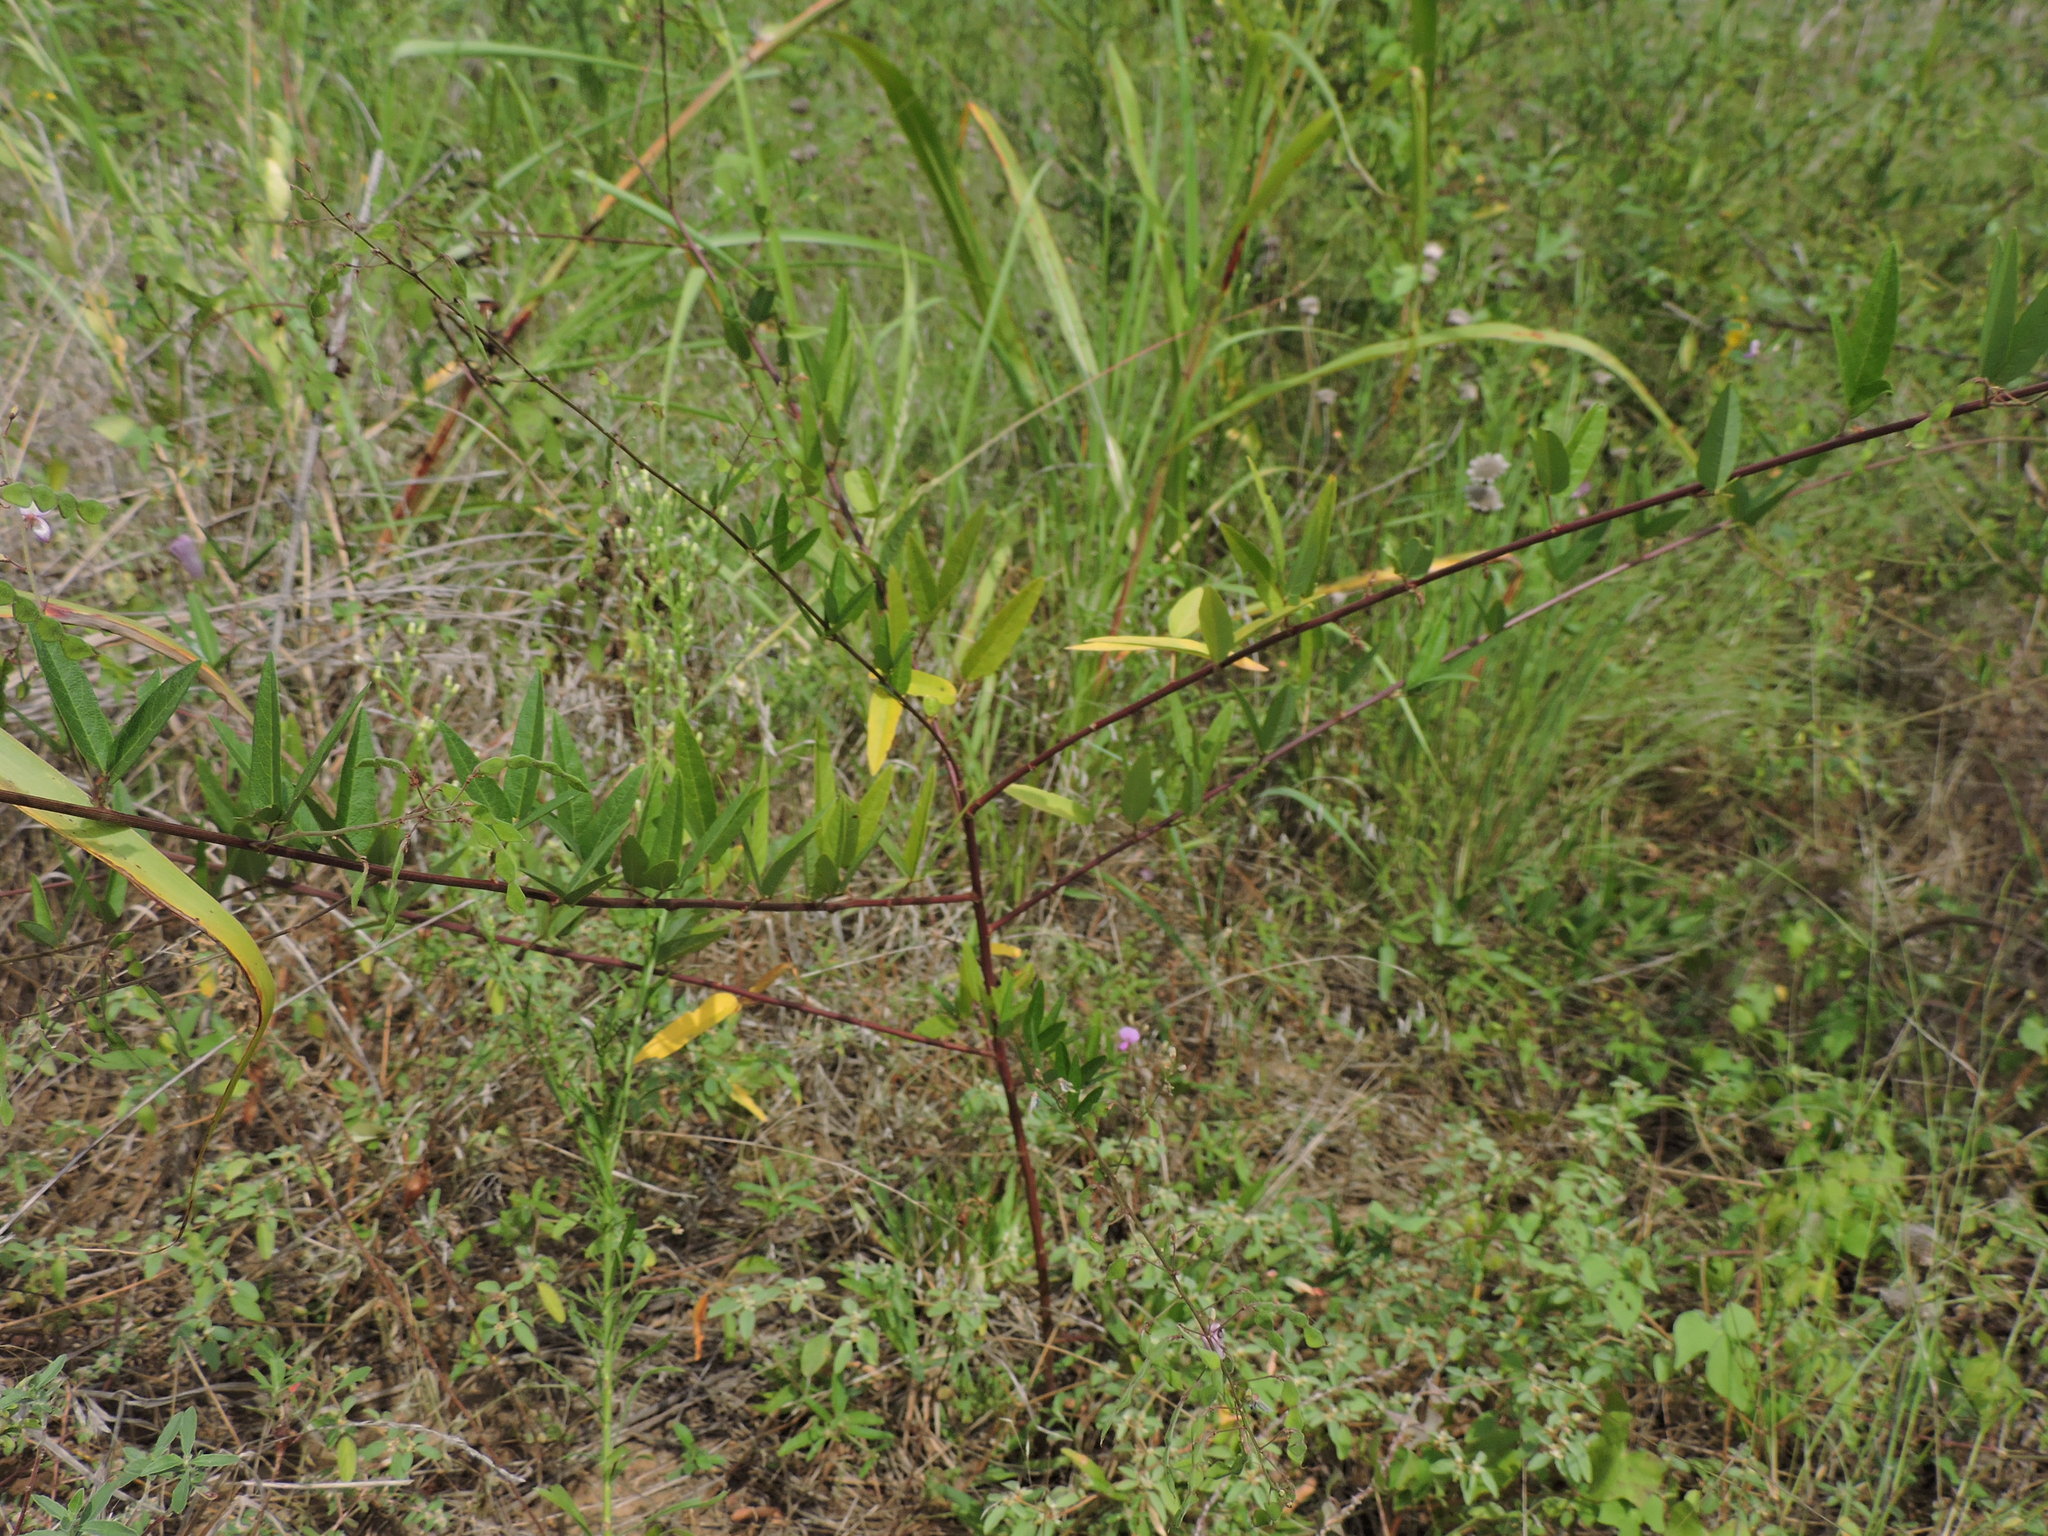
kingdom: Plantae
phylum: Tracheophyta
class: Magnoliopsida
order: Fabales
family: Fabaceae
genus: Desmodium
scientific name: Desmodium paniculatum
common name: Panicled tick-clover
